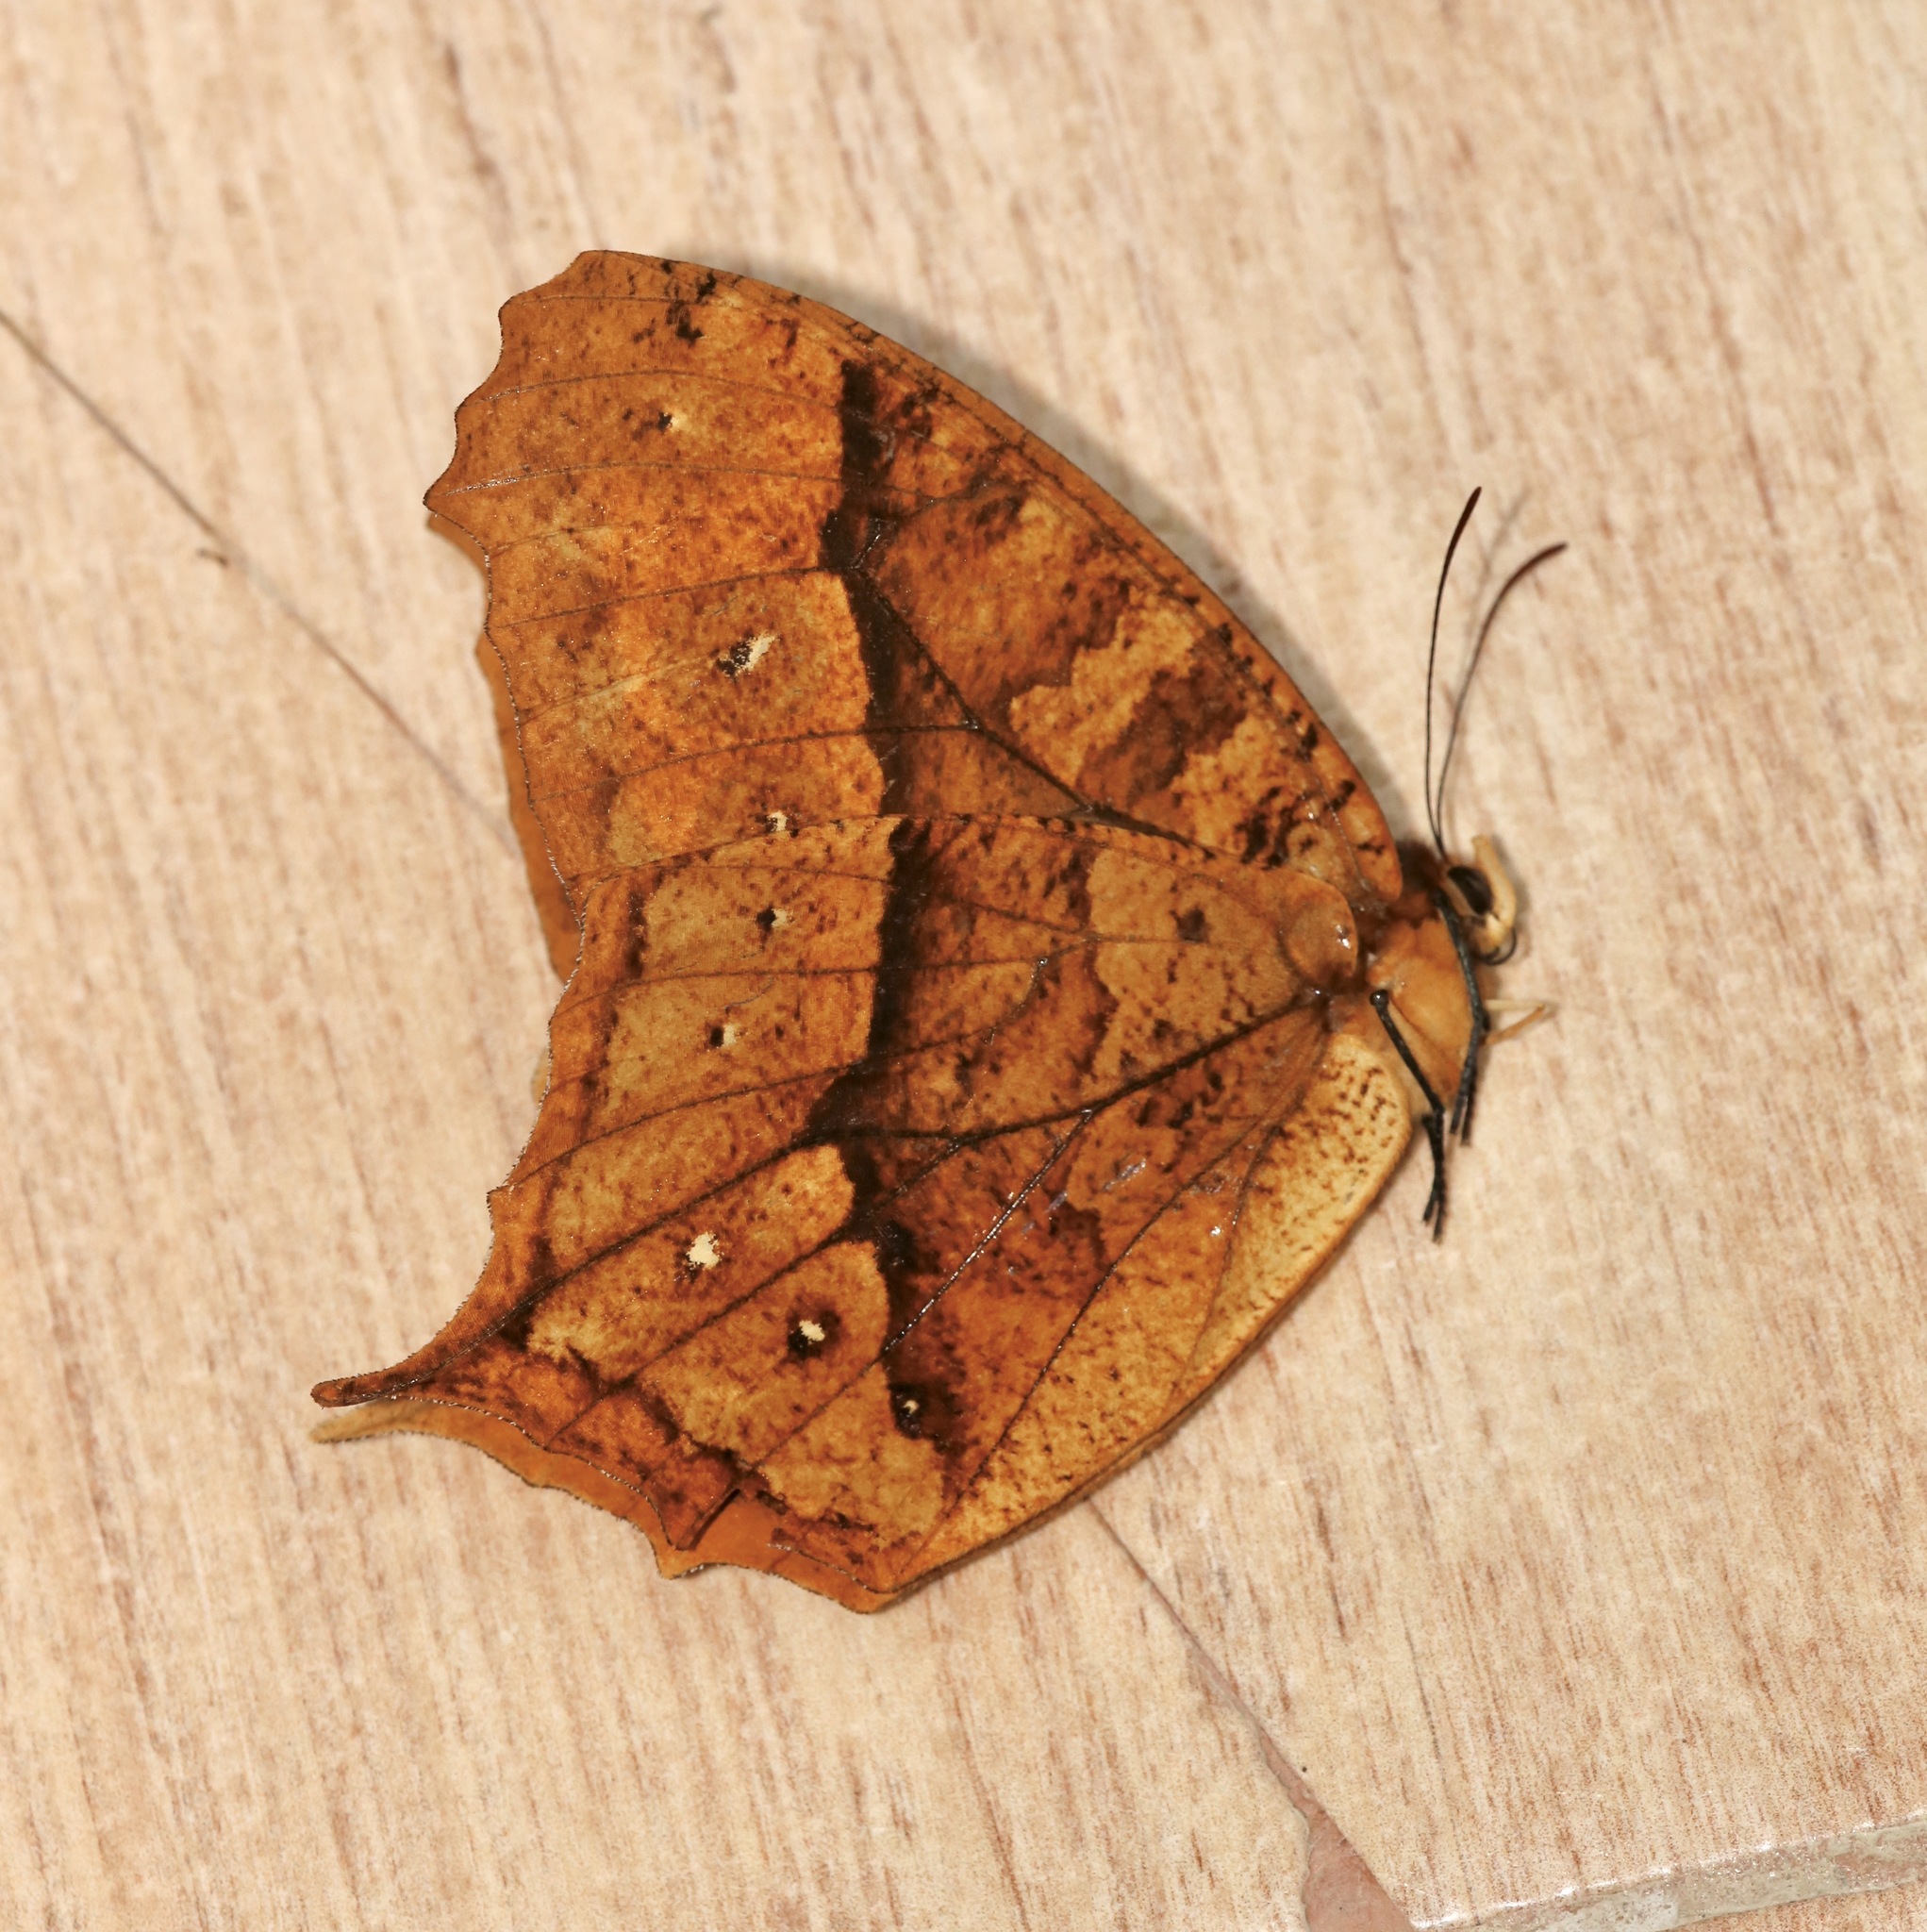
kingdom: Animalia
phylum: Arthropoda
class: Insecta
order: Lepidoptera
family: Nymphalidae
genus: Antirrhea
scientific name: Antirrhea undulata
